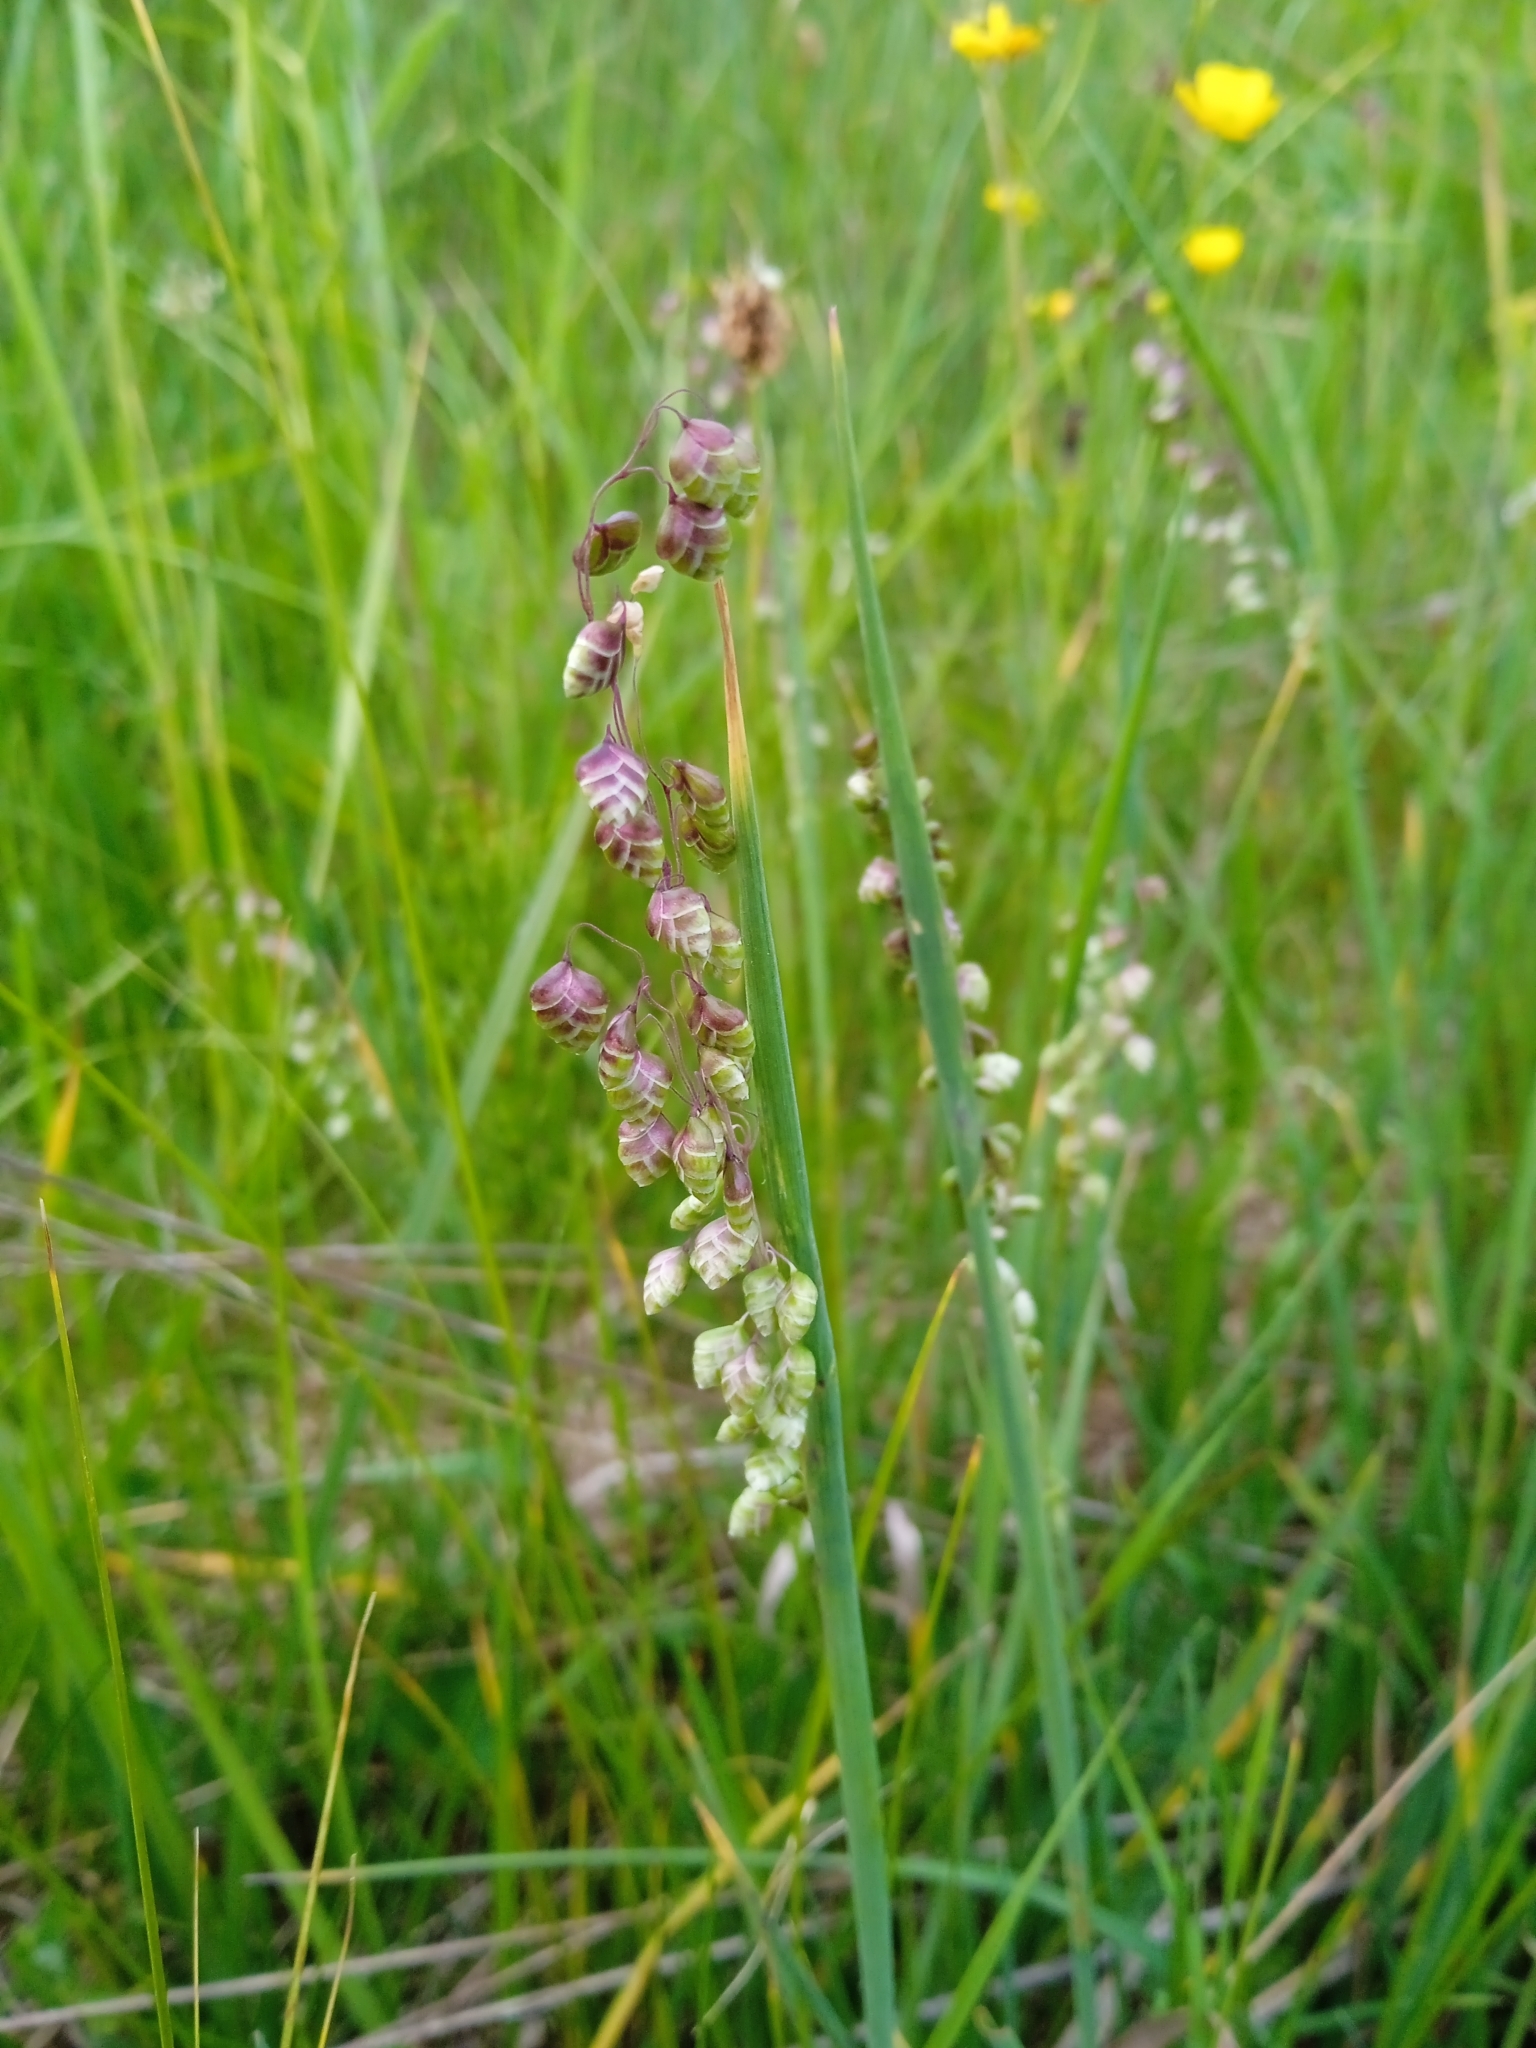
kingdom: Plantae
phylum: Tracheophyta
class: Liliopsida
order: Poales
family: Poaceae
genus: Briza
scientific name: Briza media
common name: Quaking grass
